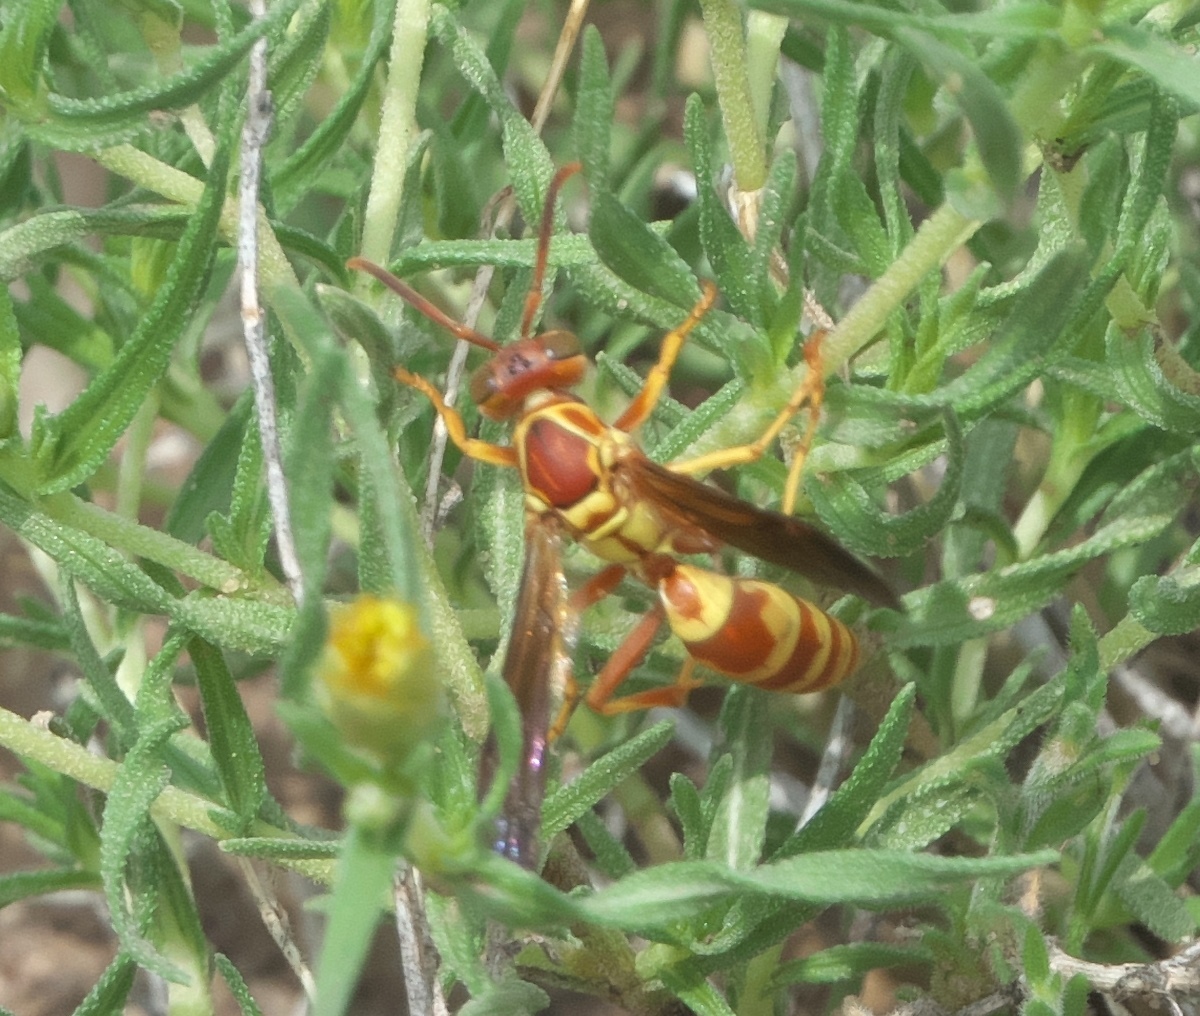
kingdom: Animalia
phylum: Arthropoda
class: Insecta
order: Hymenoptera
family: Eumenidae
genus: Polistes
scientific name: Polistes dorsalis
